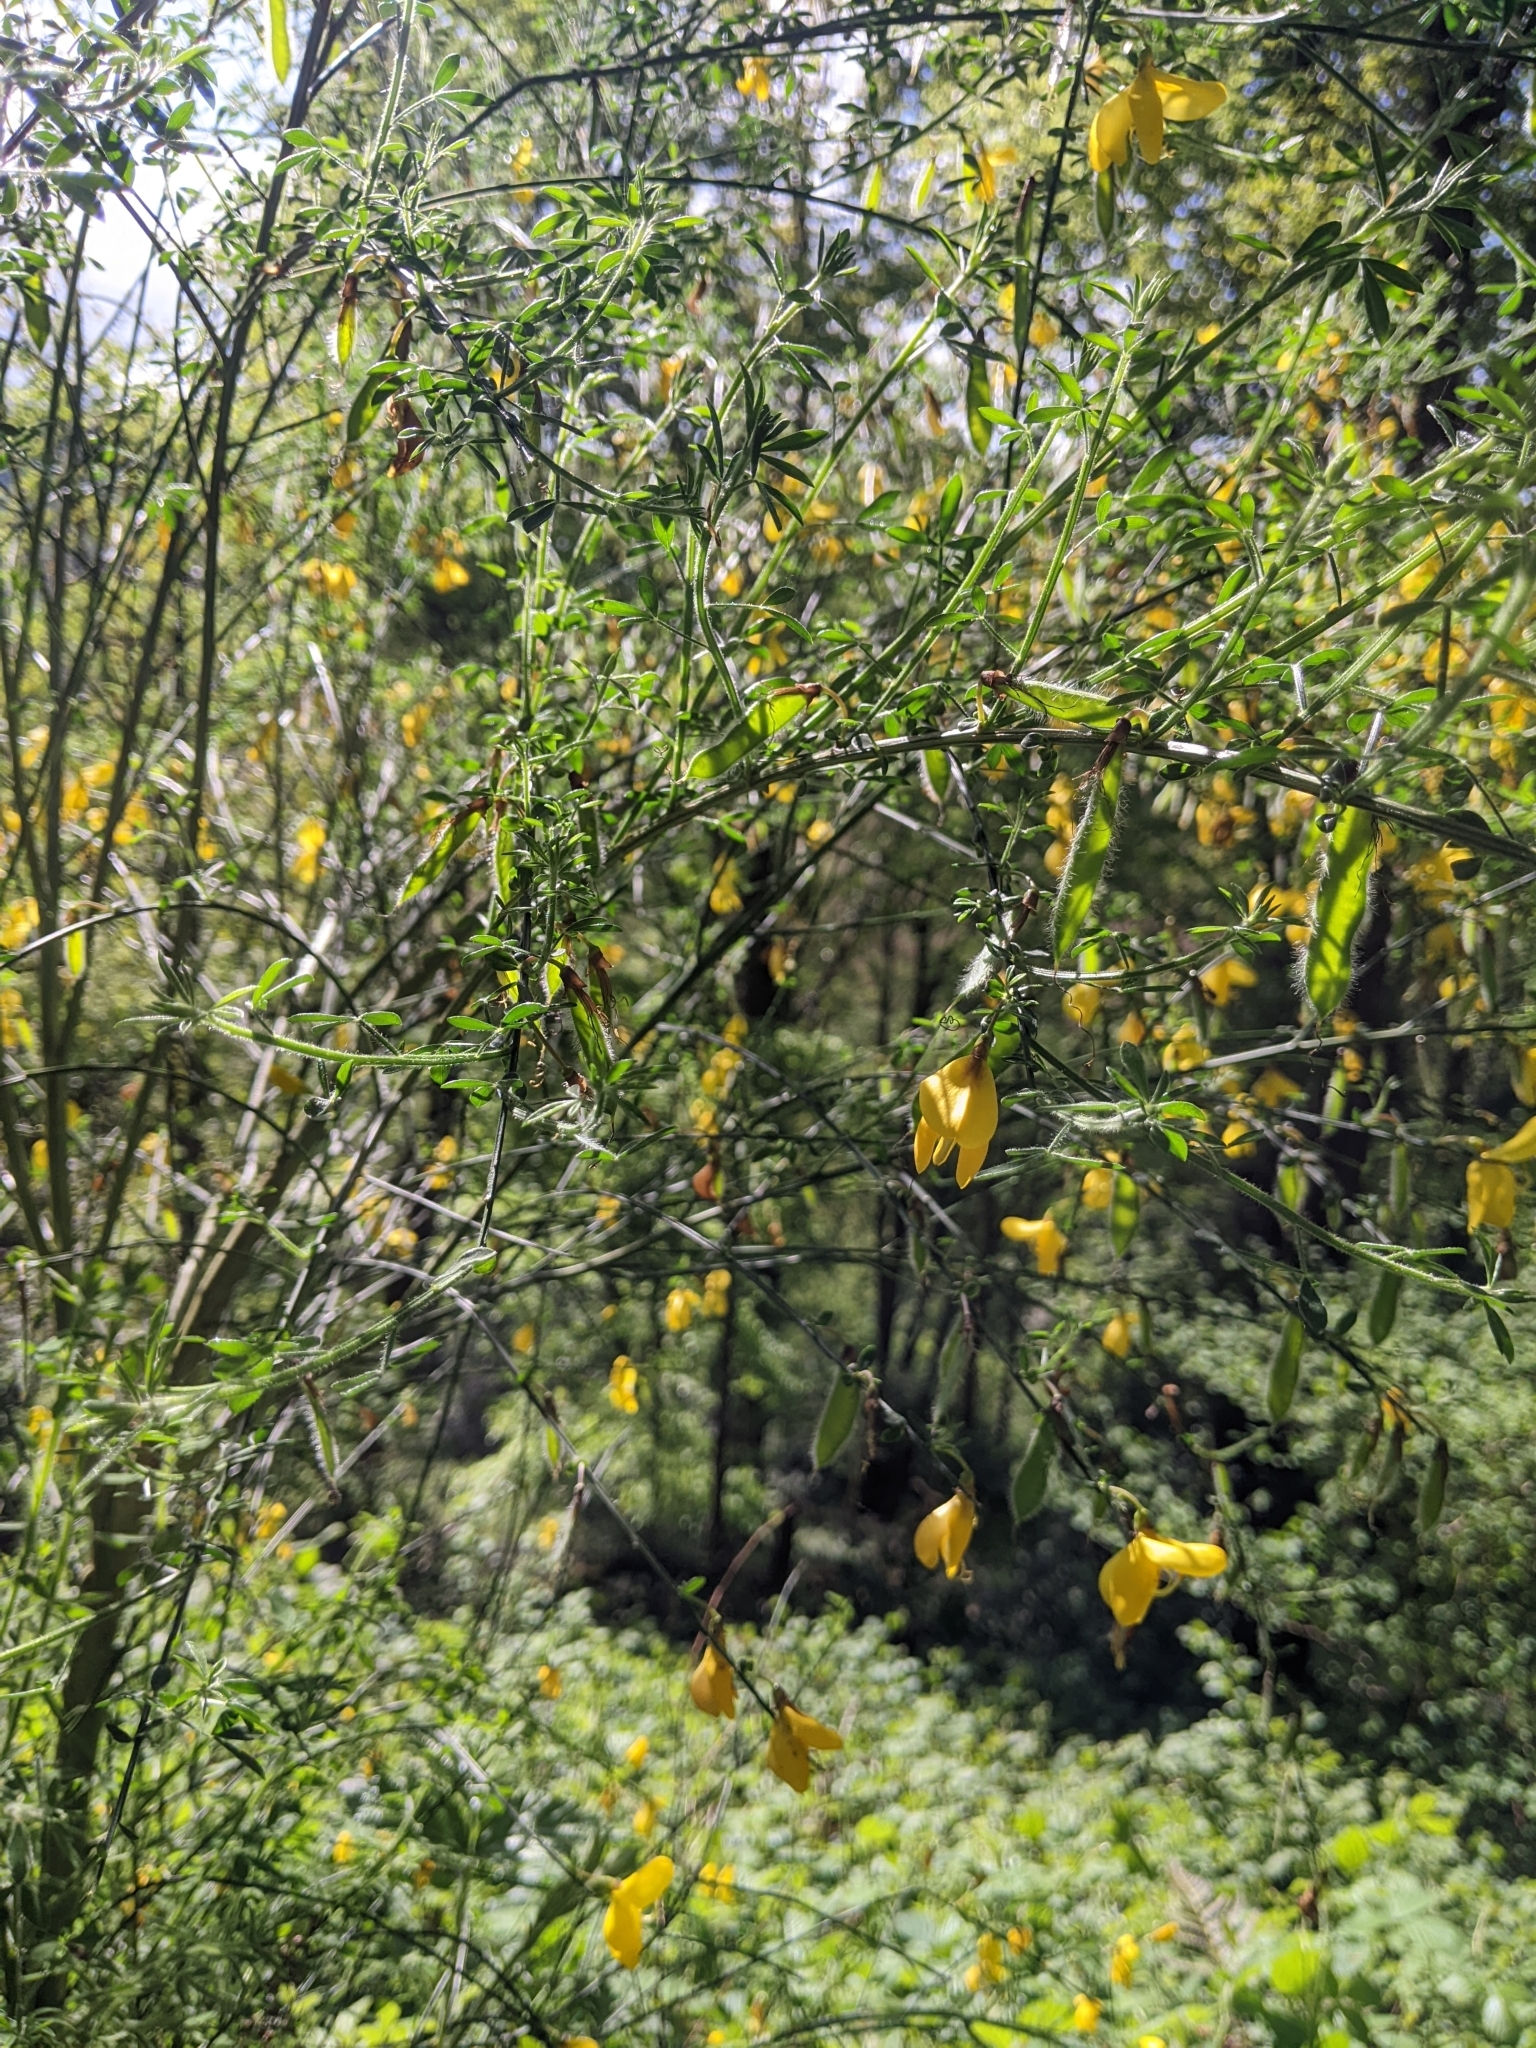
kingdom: Plantae
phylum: Tracheophyta
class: Magnoliopsida
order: Fabales
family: Fabaceae
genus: Cytisus
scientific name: Cytisus scoparius
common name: Scotch broom
